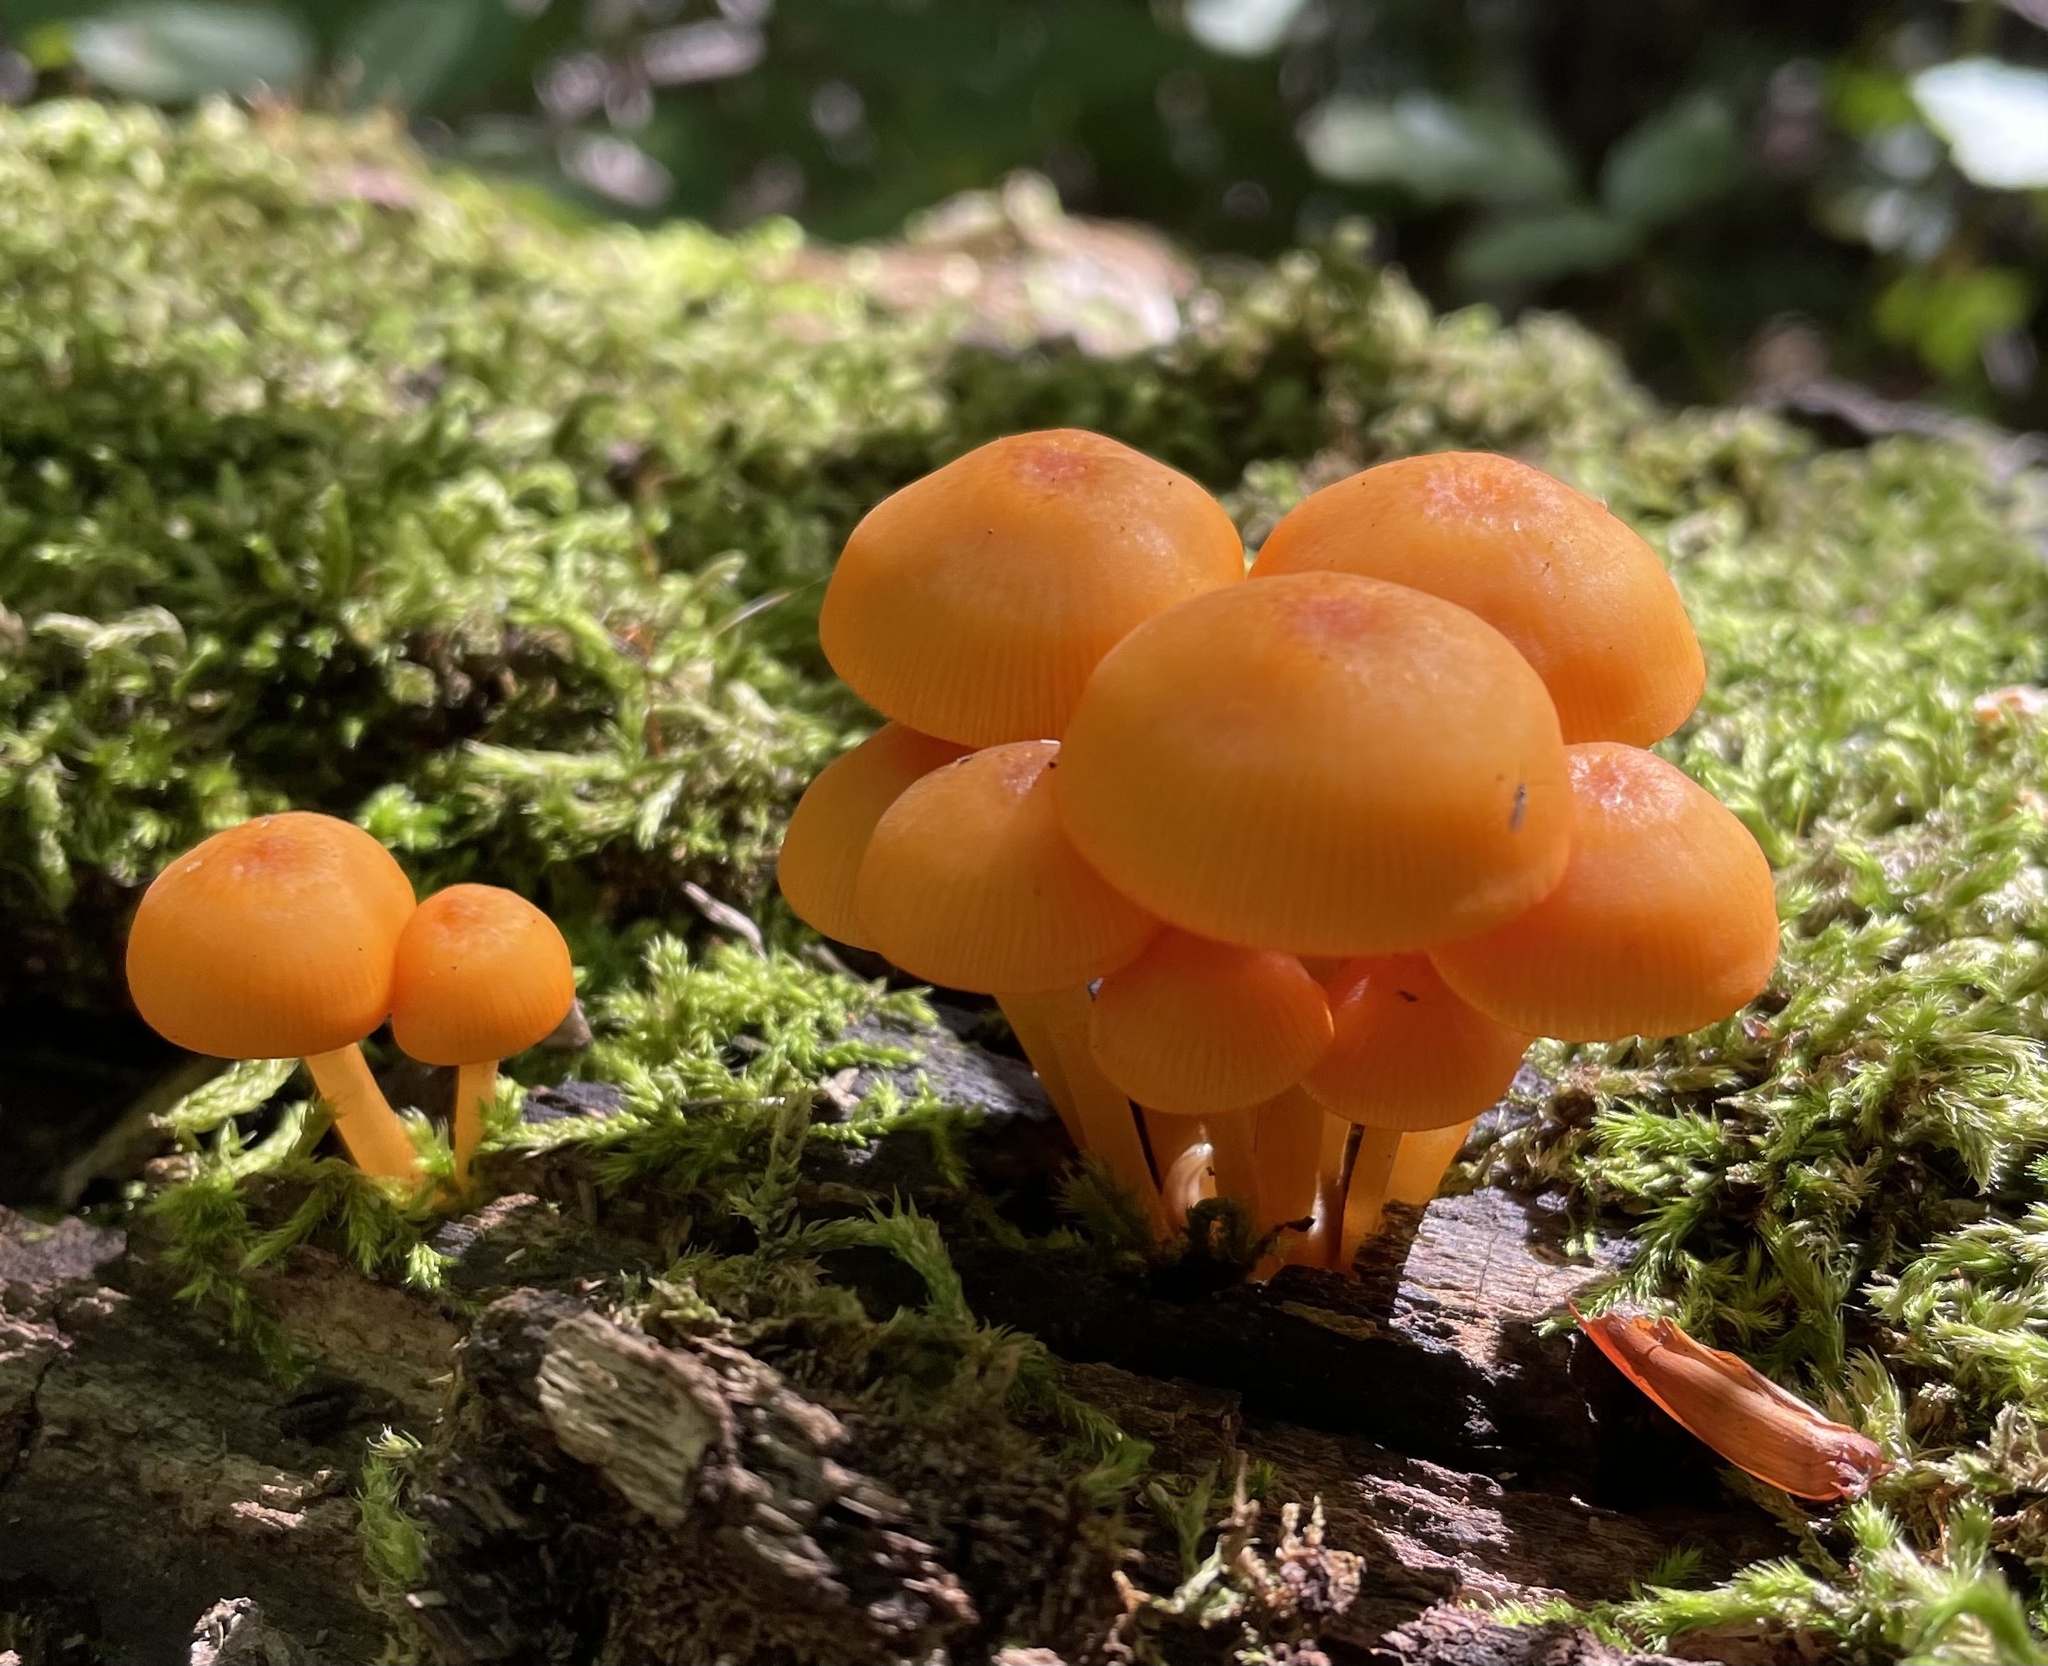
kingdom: Fungi
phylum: Basidiomycota
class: Agaricomycetes
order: Agaricales
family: Mycenaceae
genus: Mycena
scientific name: Mycena leaiana
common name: Orange mycena
